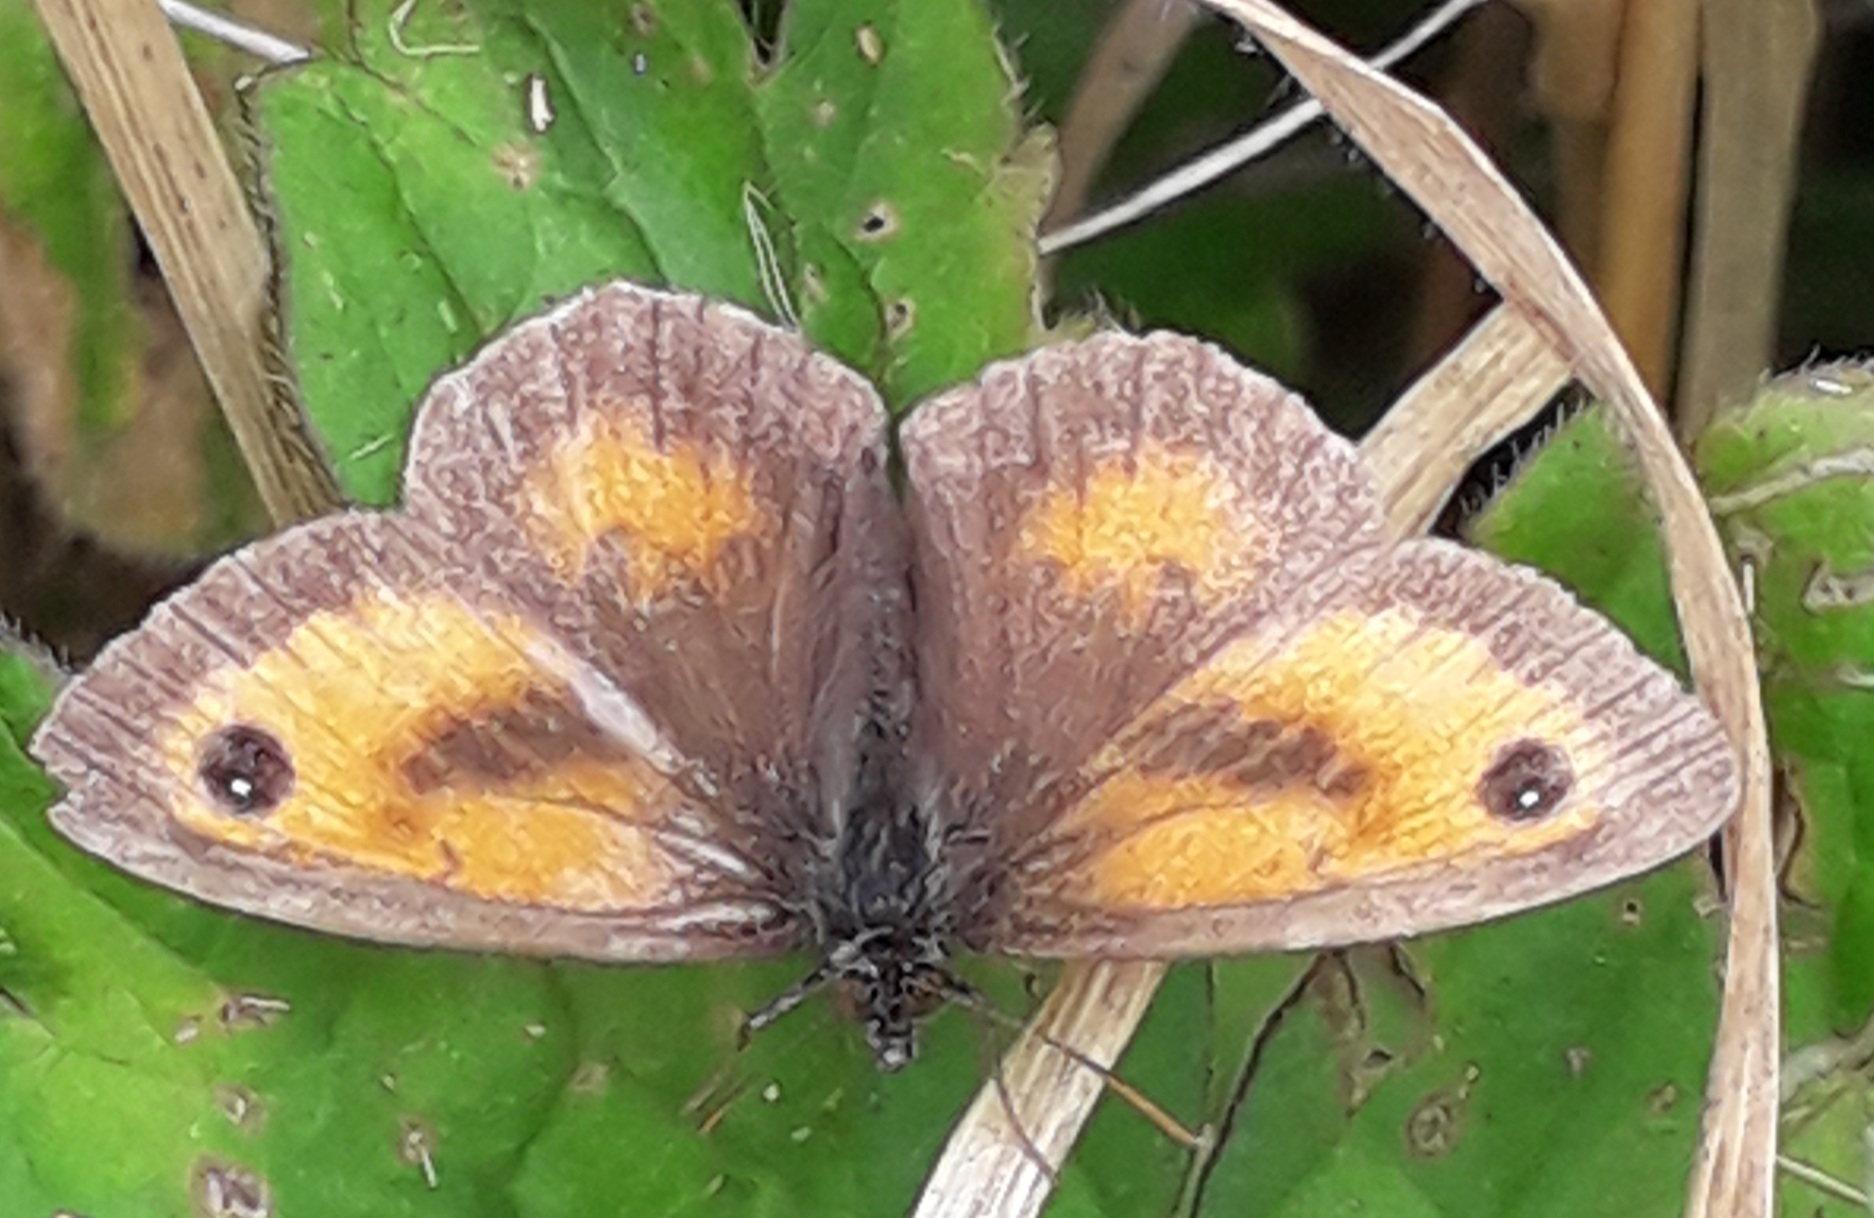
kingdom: Animalia
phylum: Arthropoda
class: Insecta
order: Lepidoptera
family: Nymphalidae
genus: Pyronia
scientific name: Pyronia tithonus
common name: Gatekeeper
